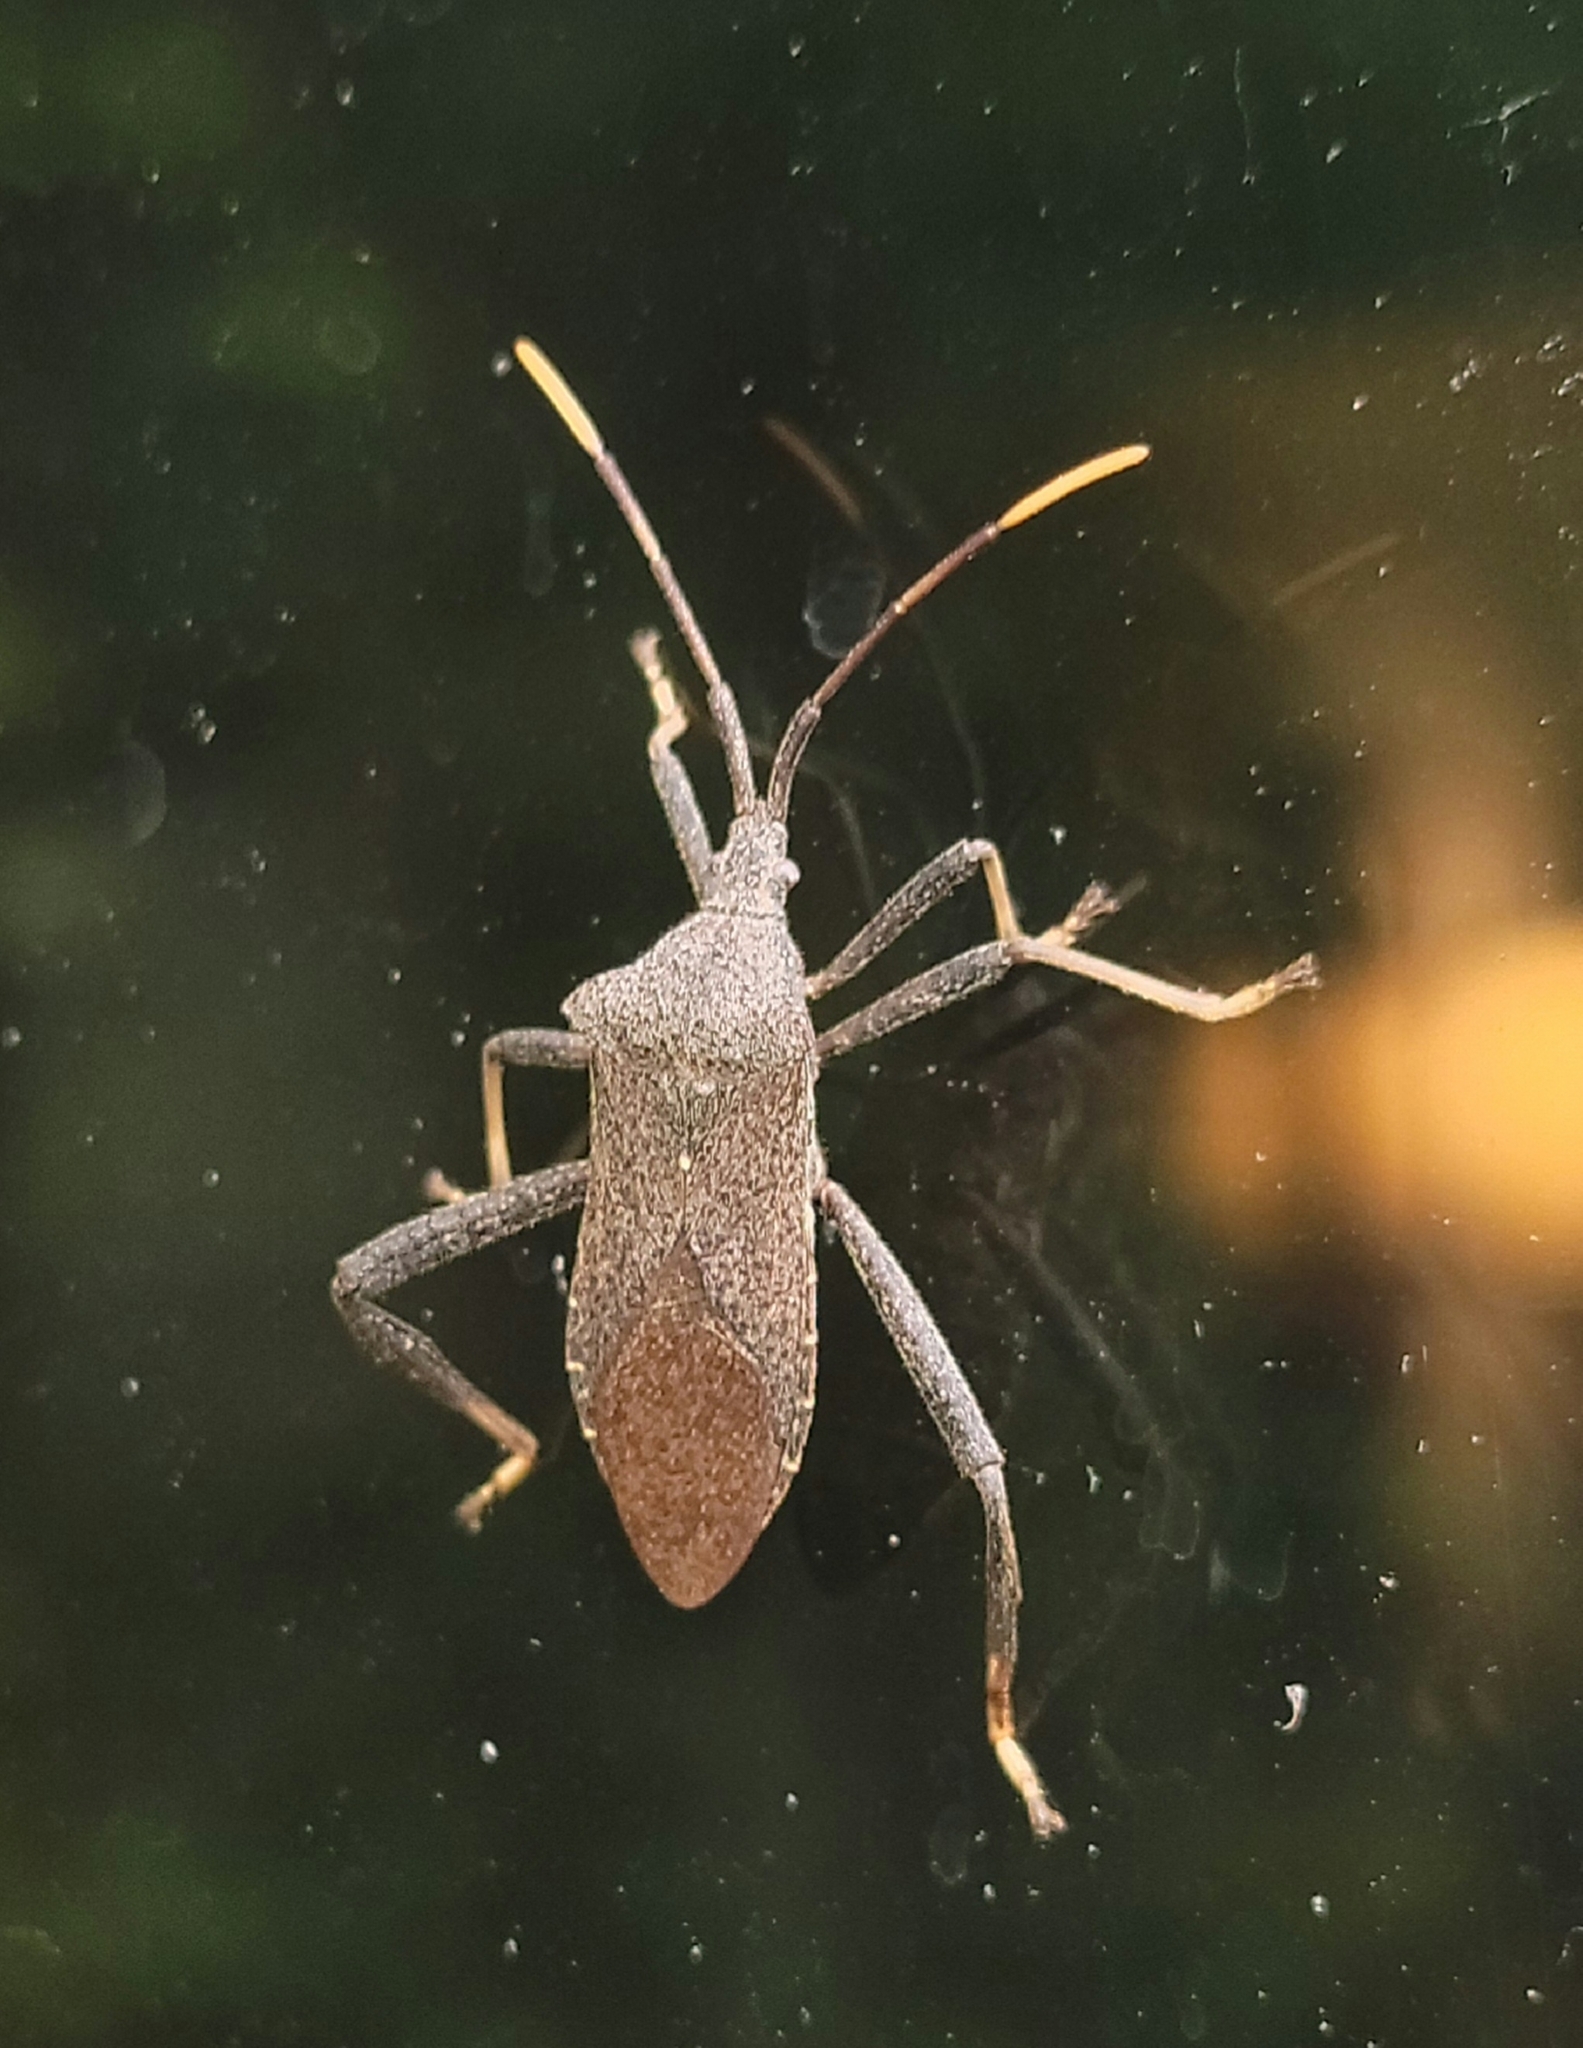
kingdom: Animalia
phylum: Arthropoda
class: Insecta
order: Hemiptera
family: Coreidae
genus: Acanthocephala
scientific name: Acanthocephala terminalis
